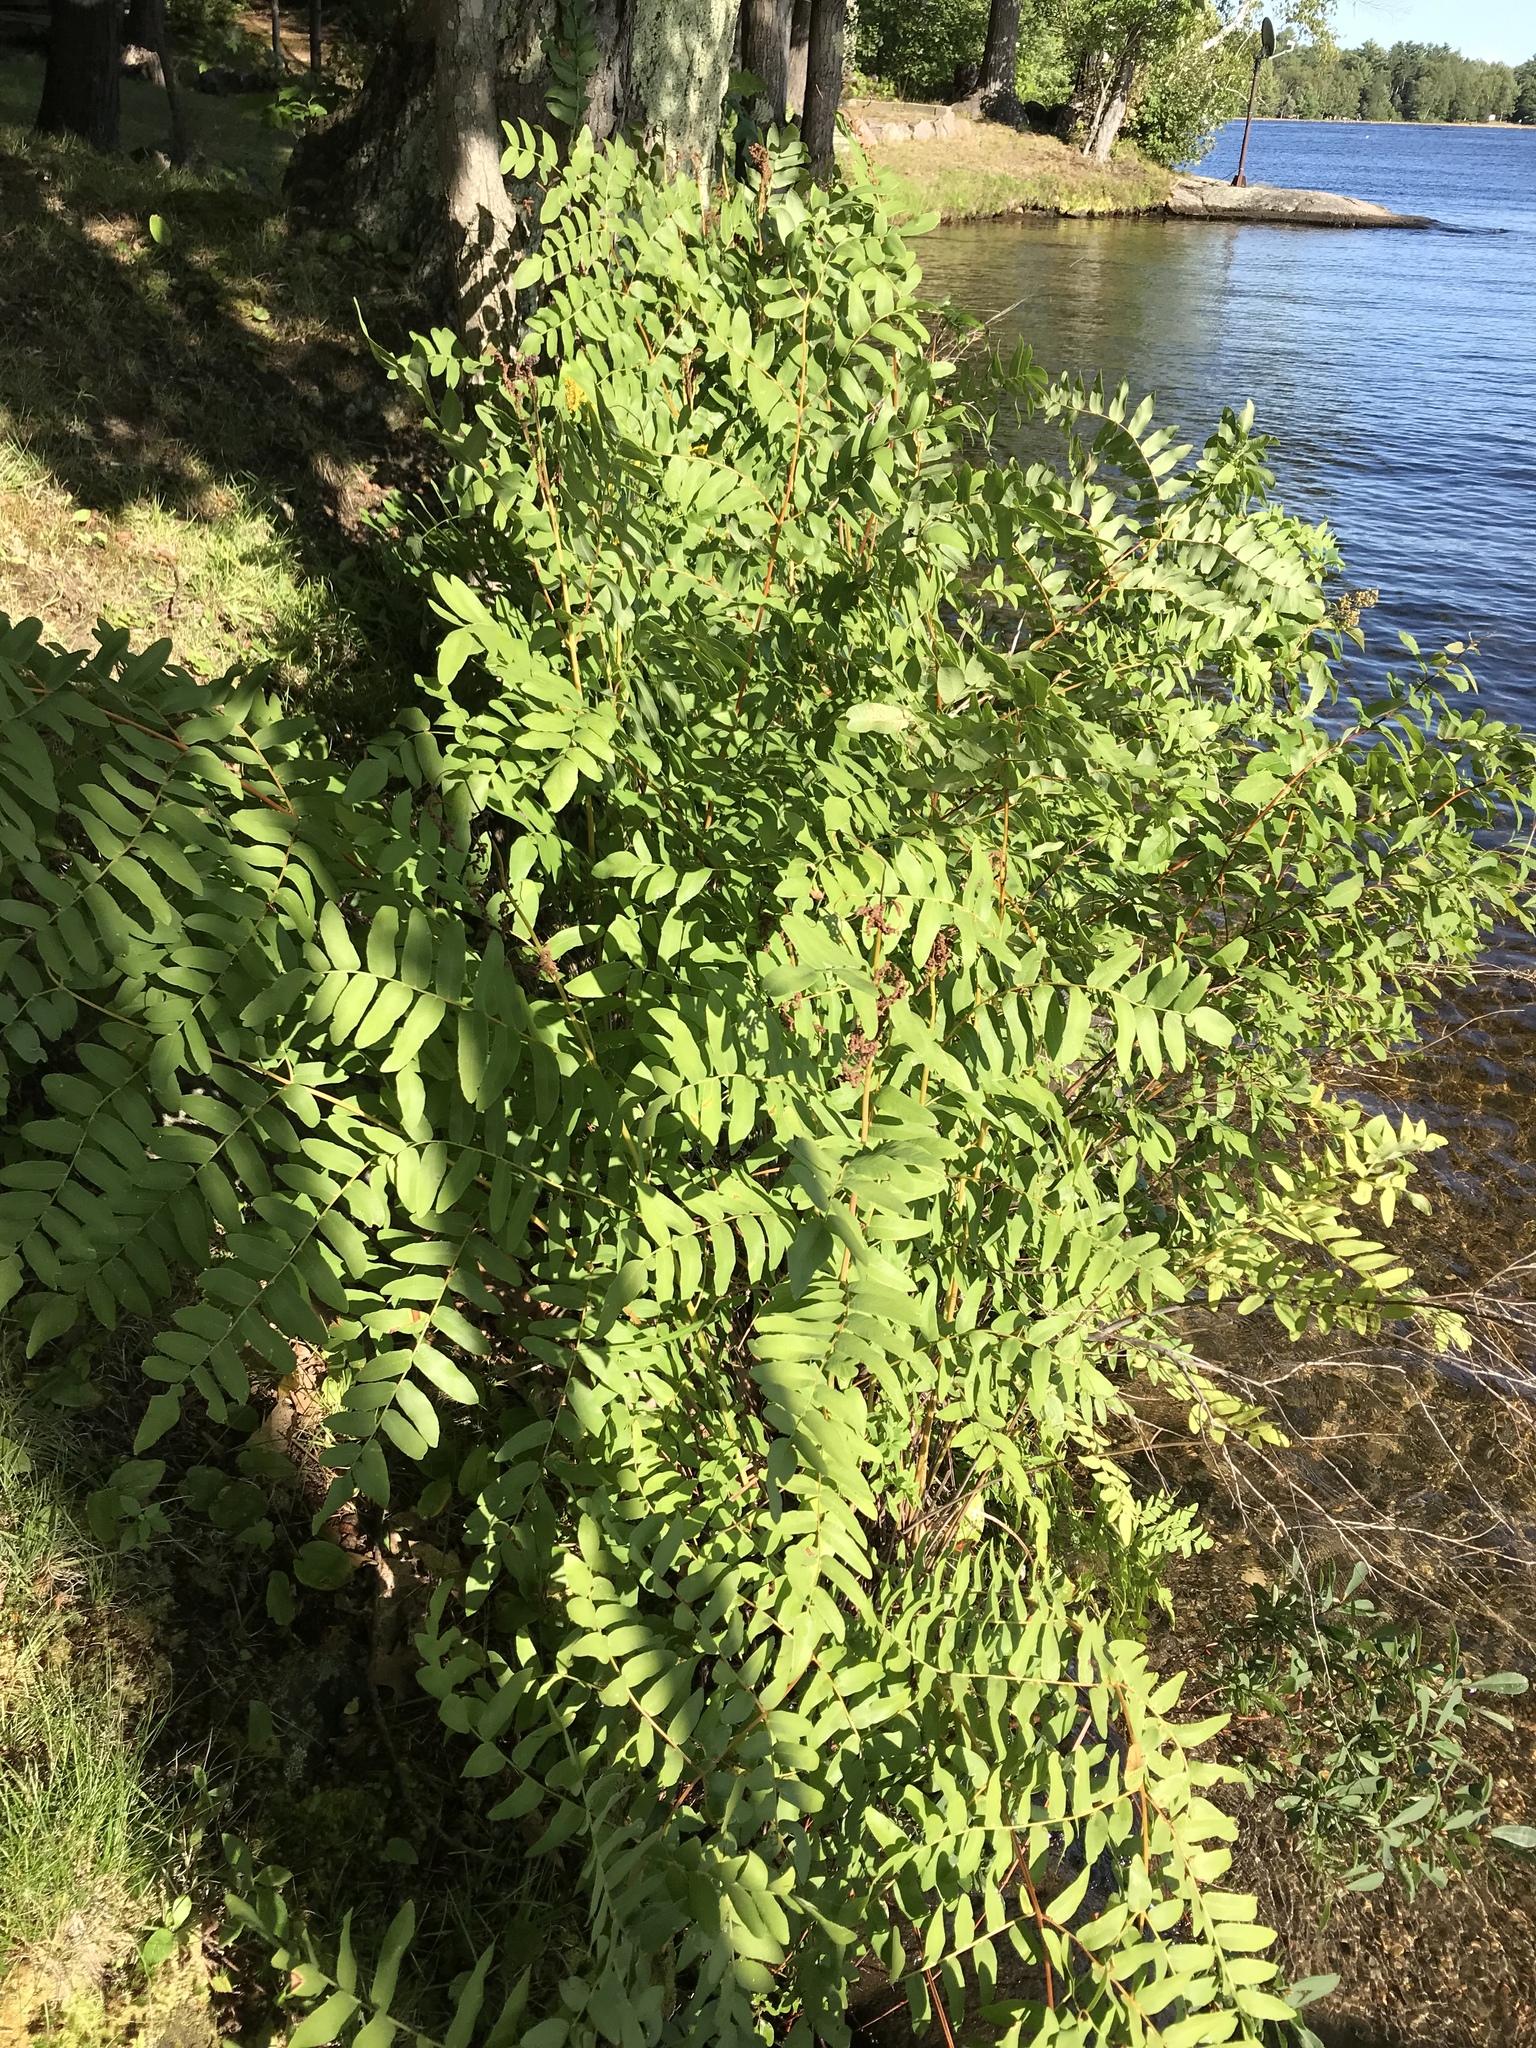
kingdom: Plantae
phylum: Tracheophyta
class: Polypodiopsida
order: Osmundales
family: Osmundaceae
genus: Osmunda
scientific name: Osmunda spectabilis
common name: American royal fern
